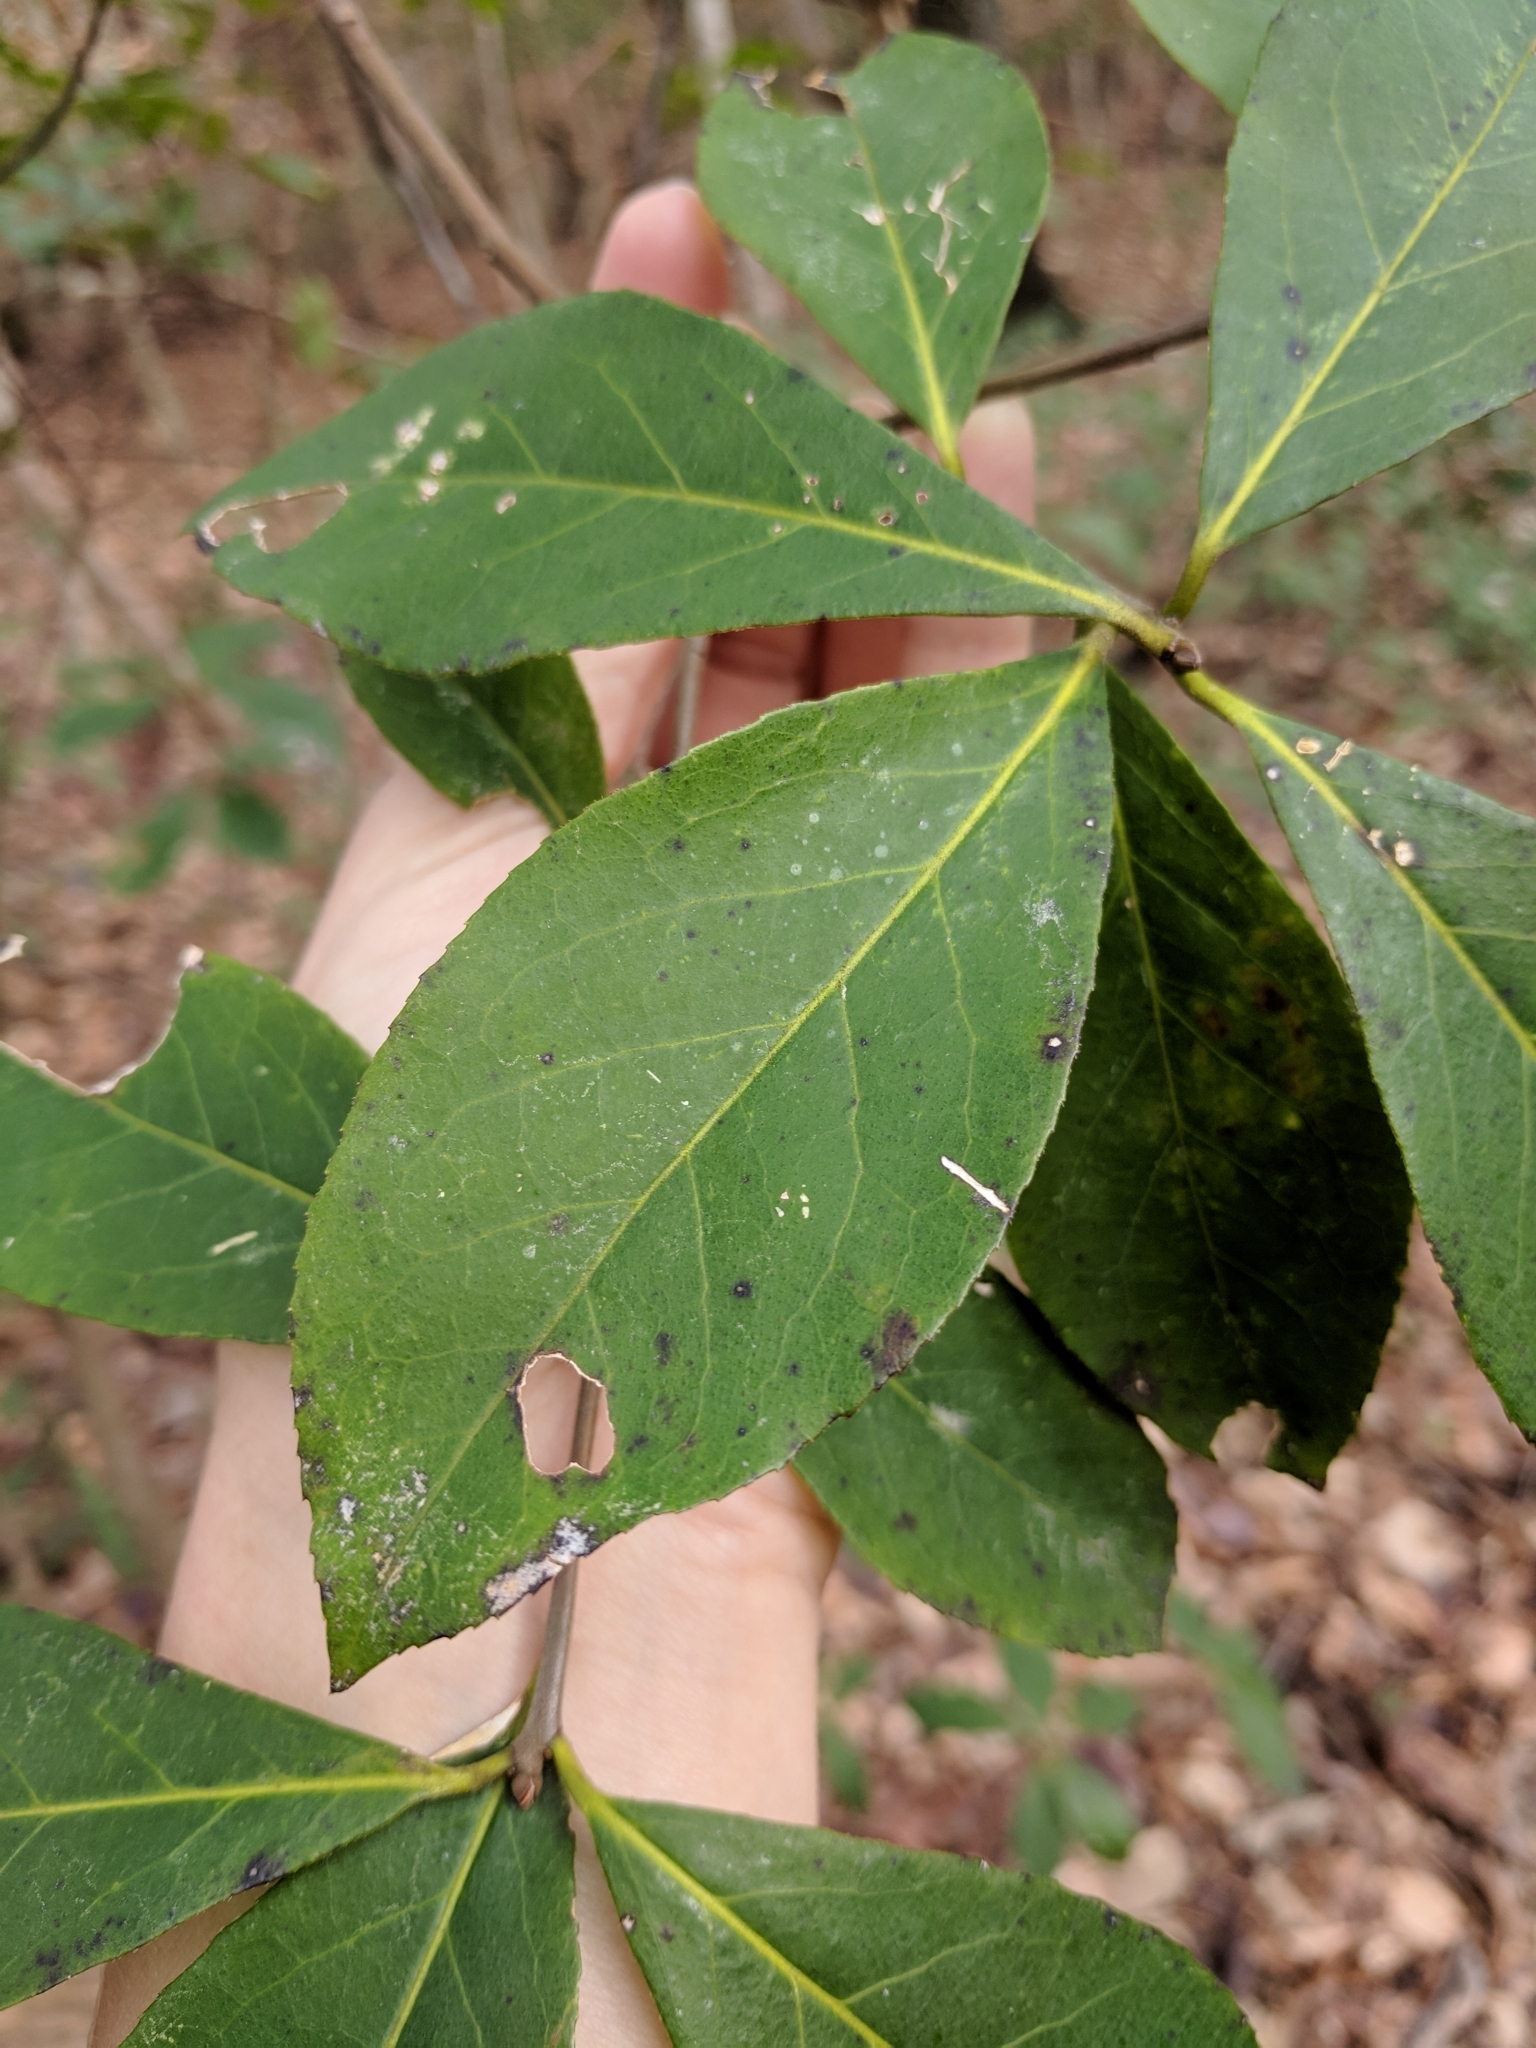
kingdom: Plantae
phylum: Tracheophyta
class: Magnoliopsida
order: Ericales
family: Symplocaceae
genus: Symplocos
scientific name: Symplocos tinctoria
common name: Horse-sugar
